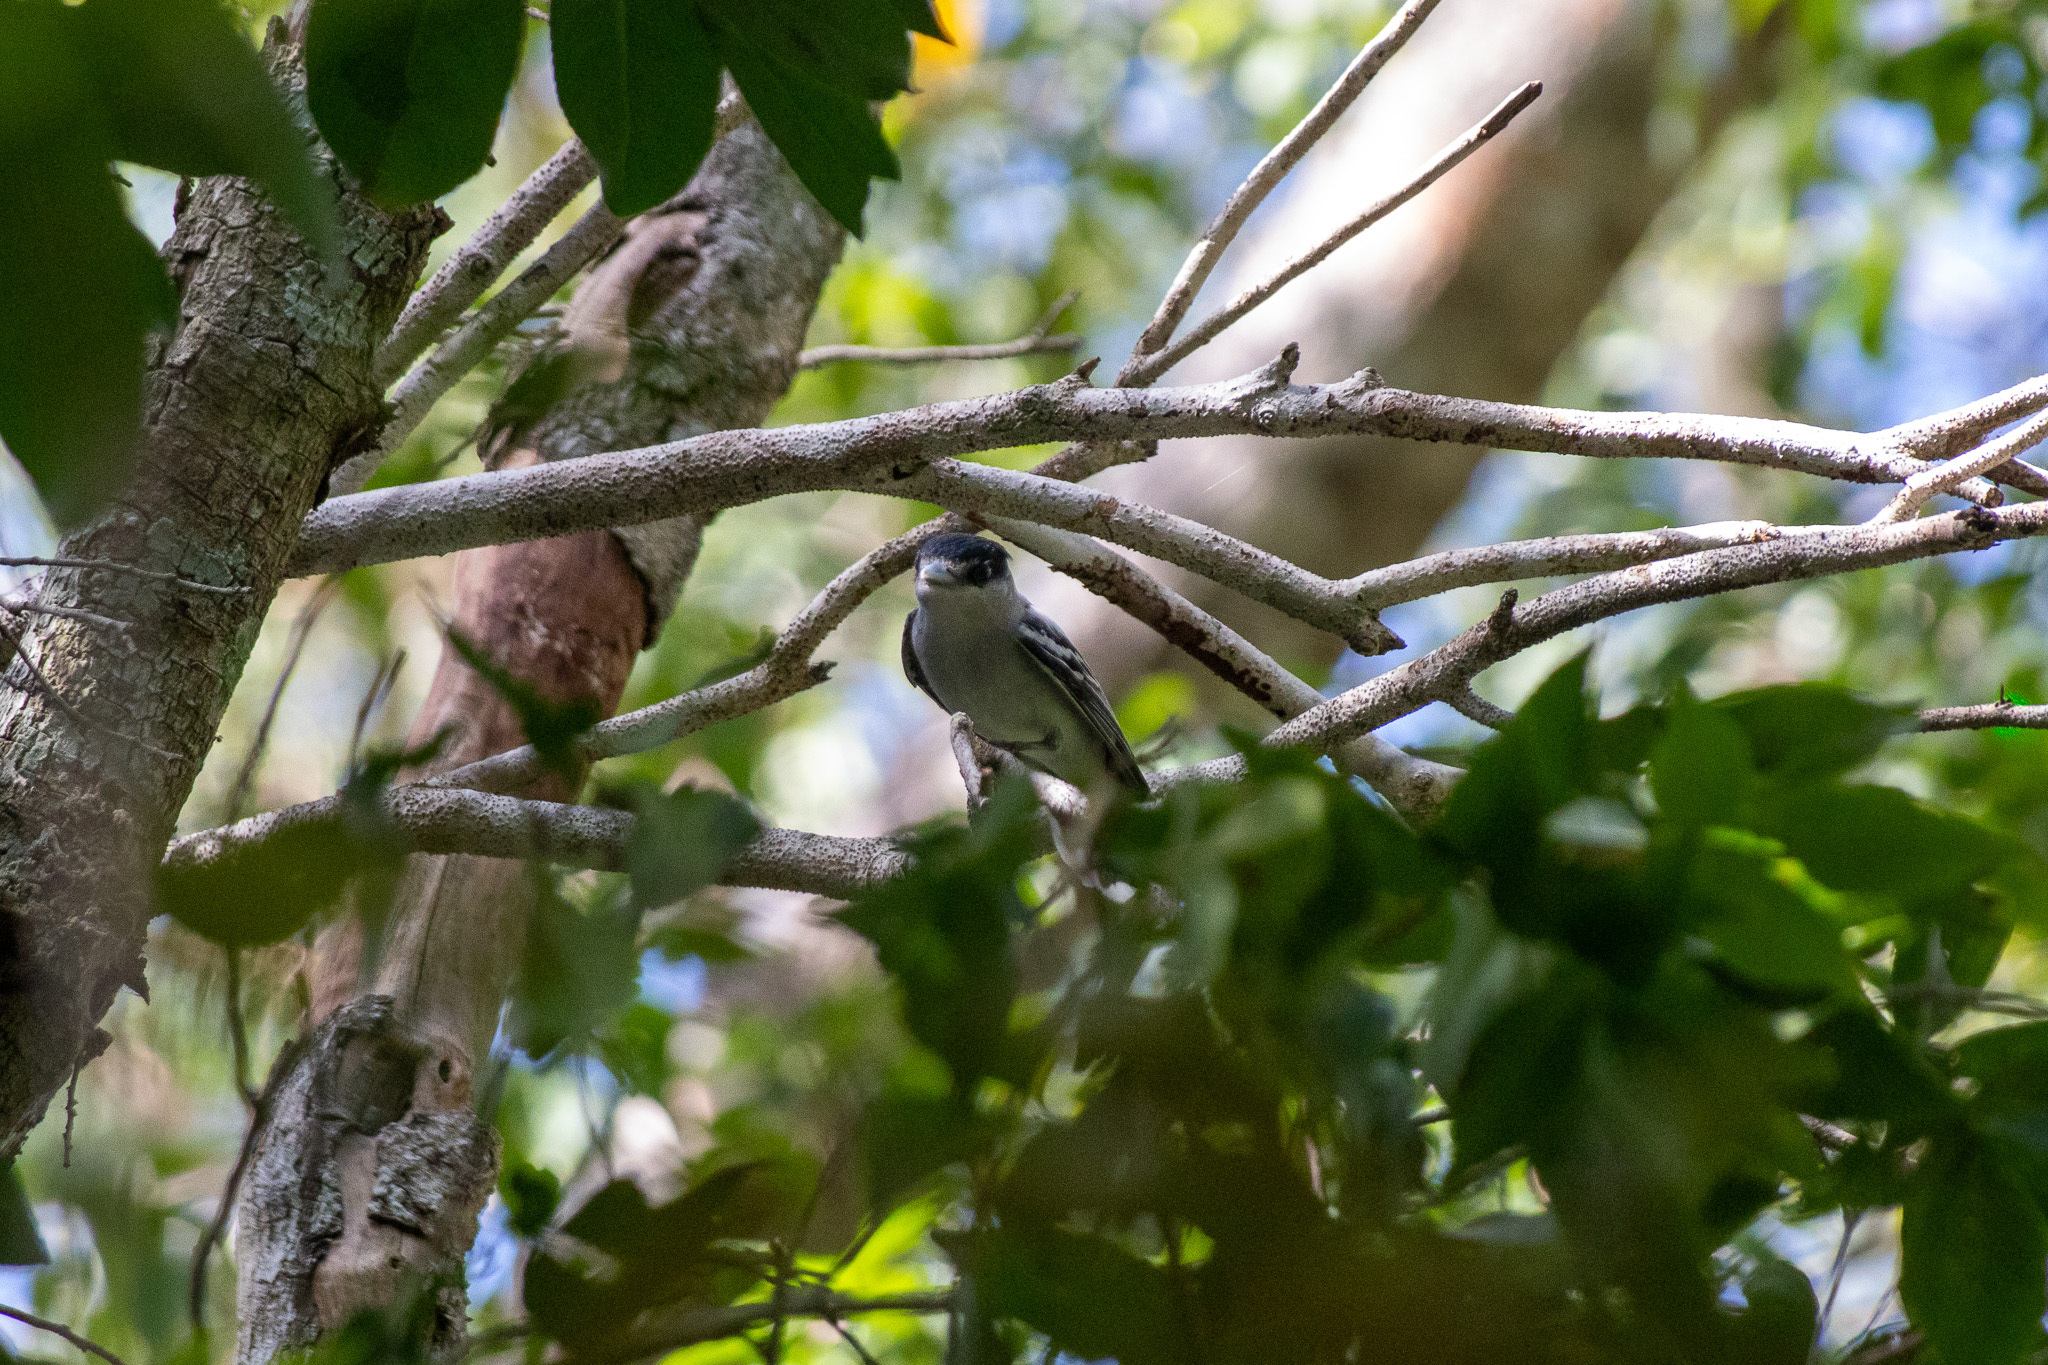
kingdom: Animalia
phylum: Chordata
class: Aves
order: Passeriformes
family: Cotingidae
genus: Pachyramphus
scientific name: Pachyramphus major
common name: Gray-collared becard
